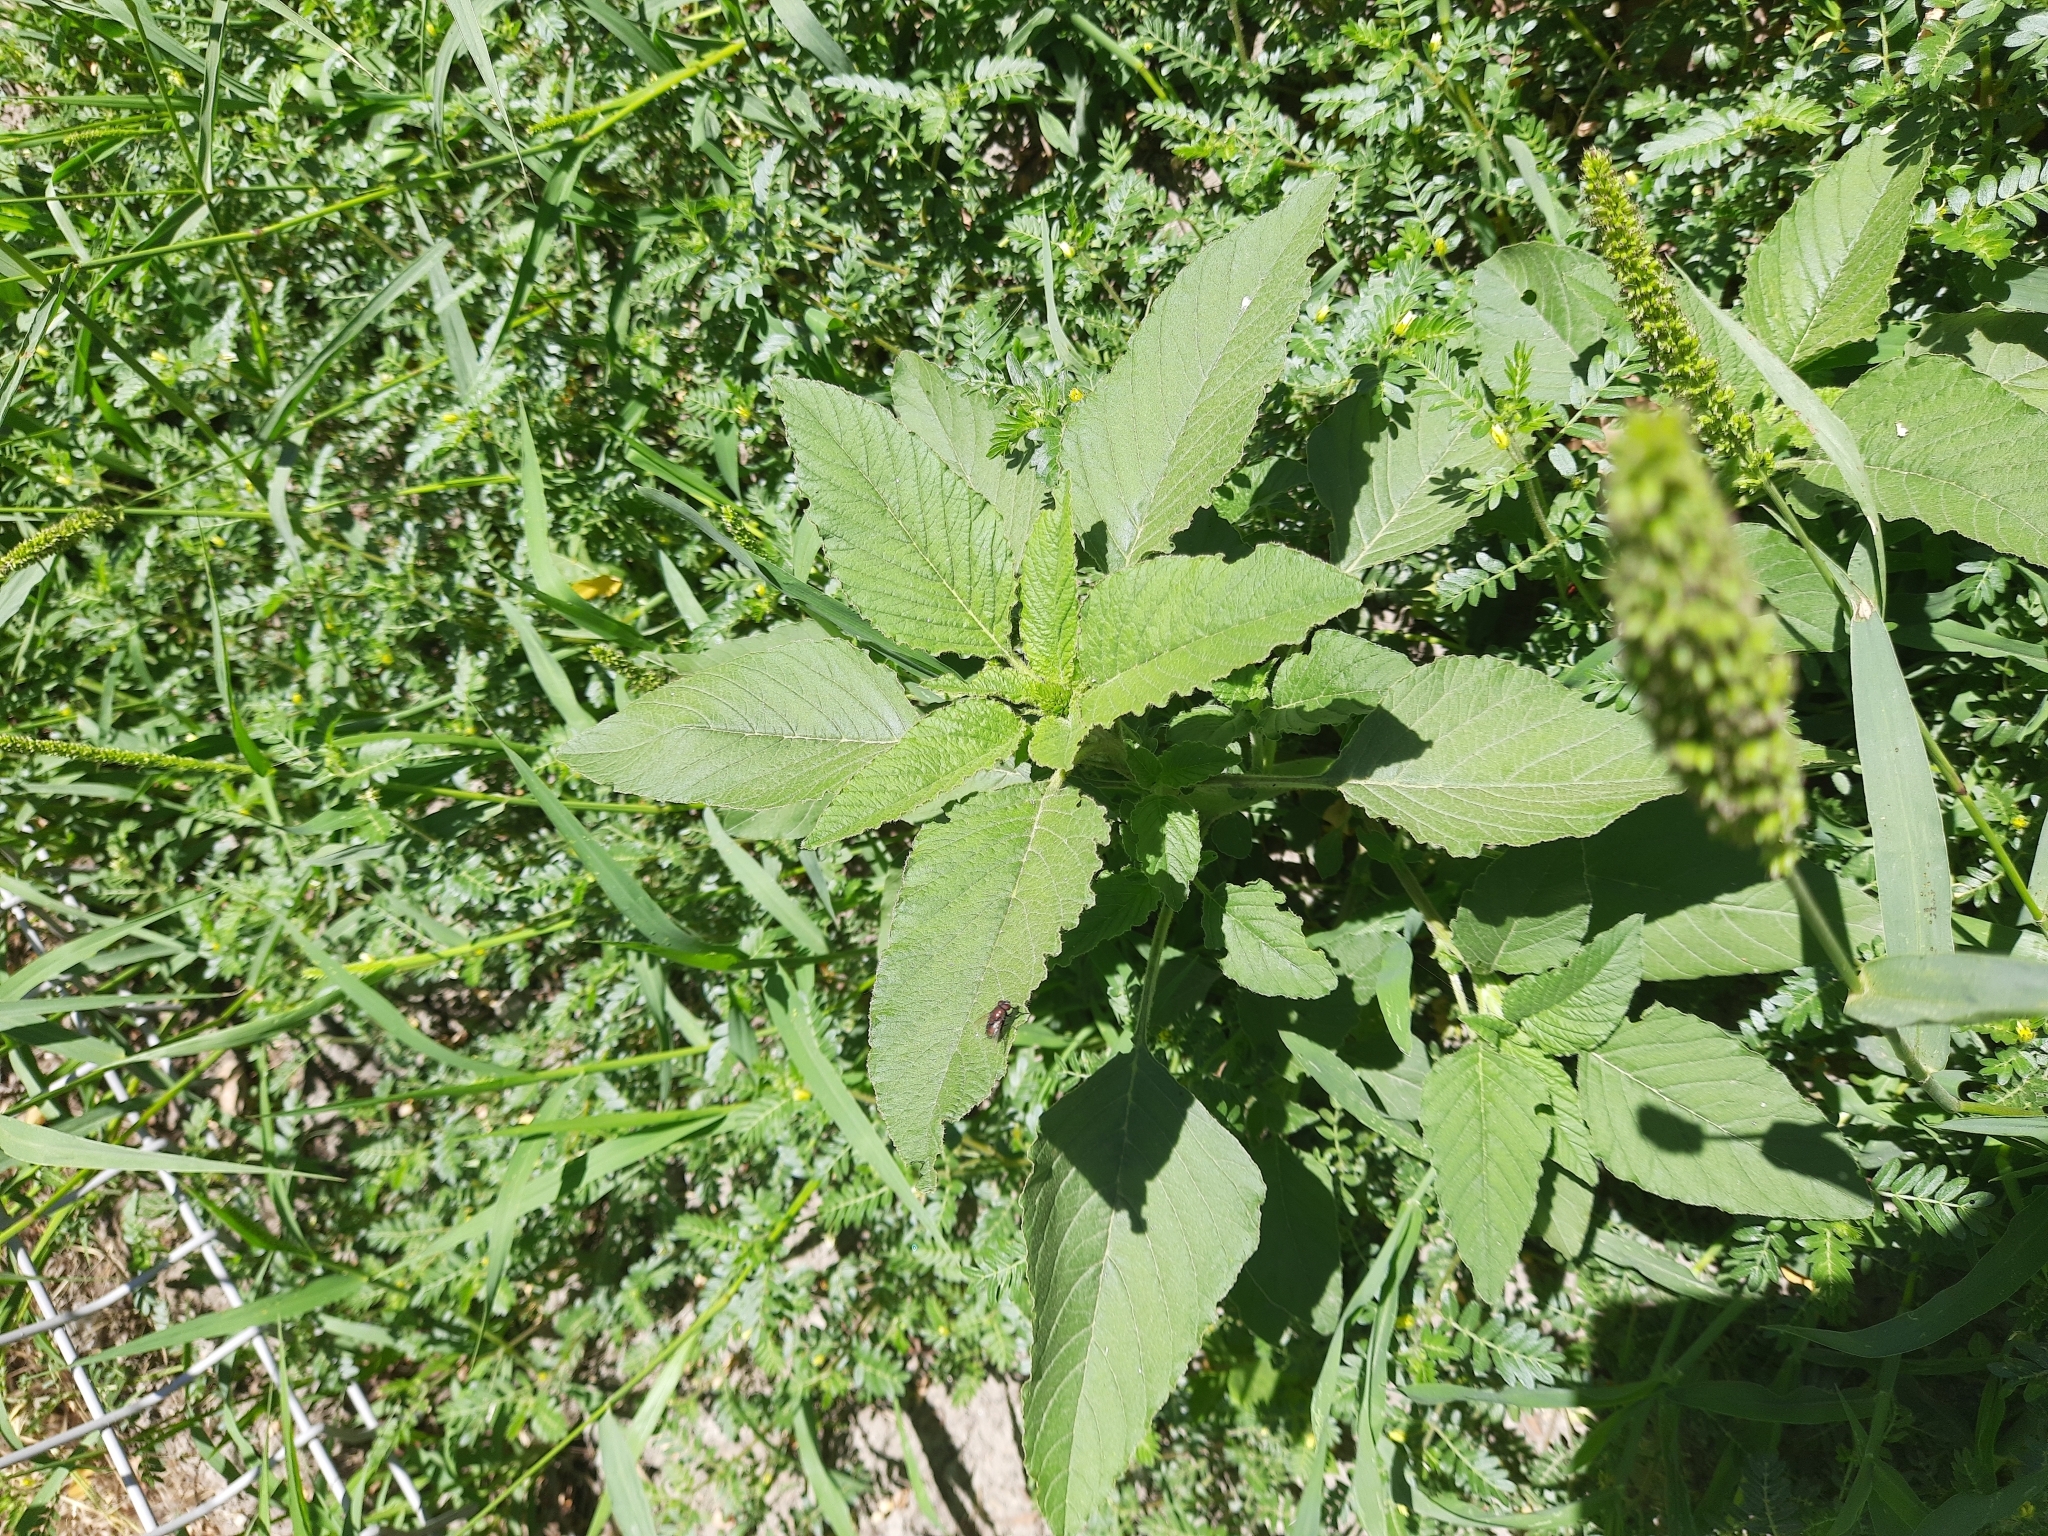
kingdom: Plantae
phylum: Tracheophyta
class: Magnoliopsida
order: Caryophyllales
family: Amaranthaceae
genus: Amaranthus
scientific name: Amaranthus retroflexus
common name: Redroot amaranth
